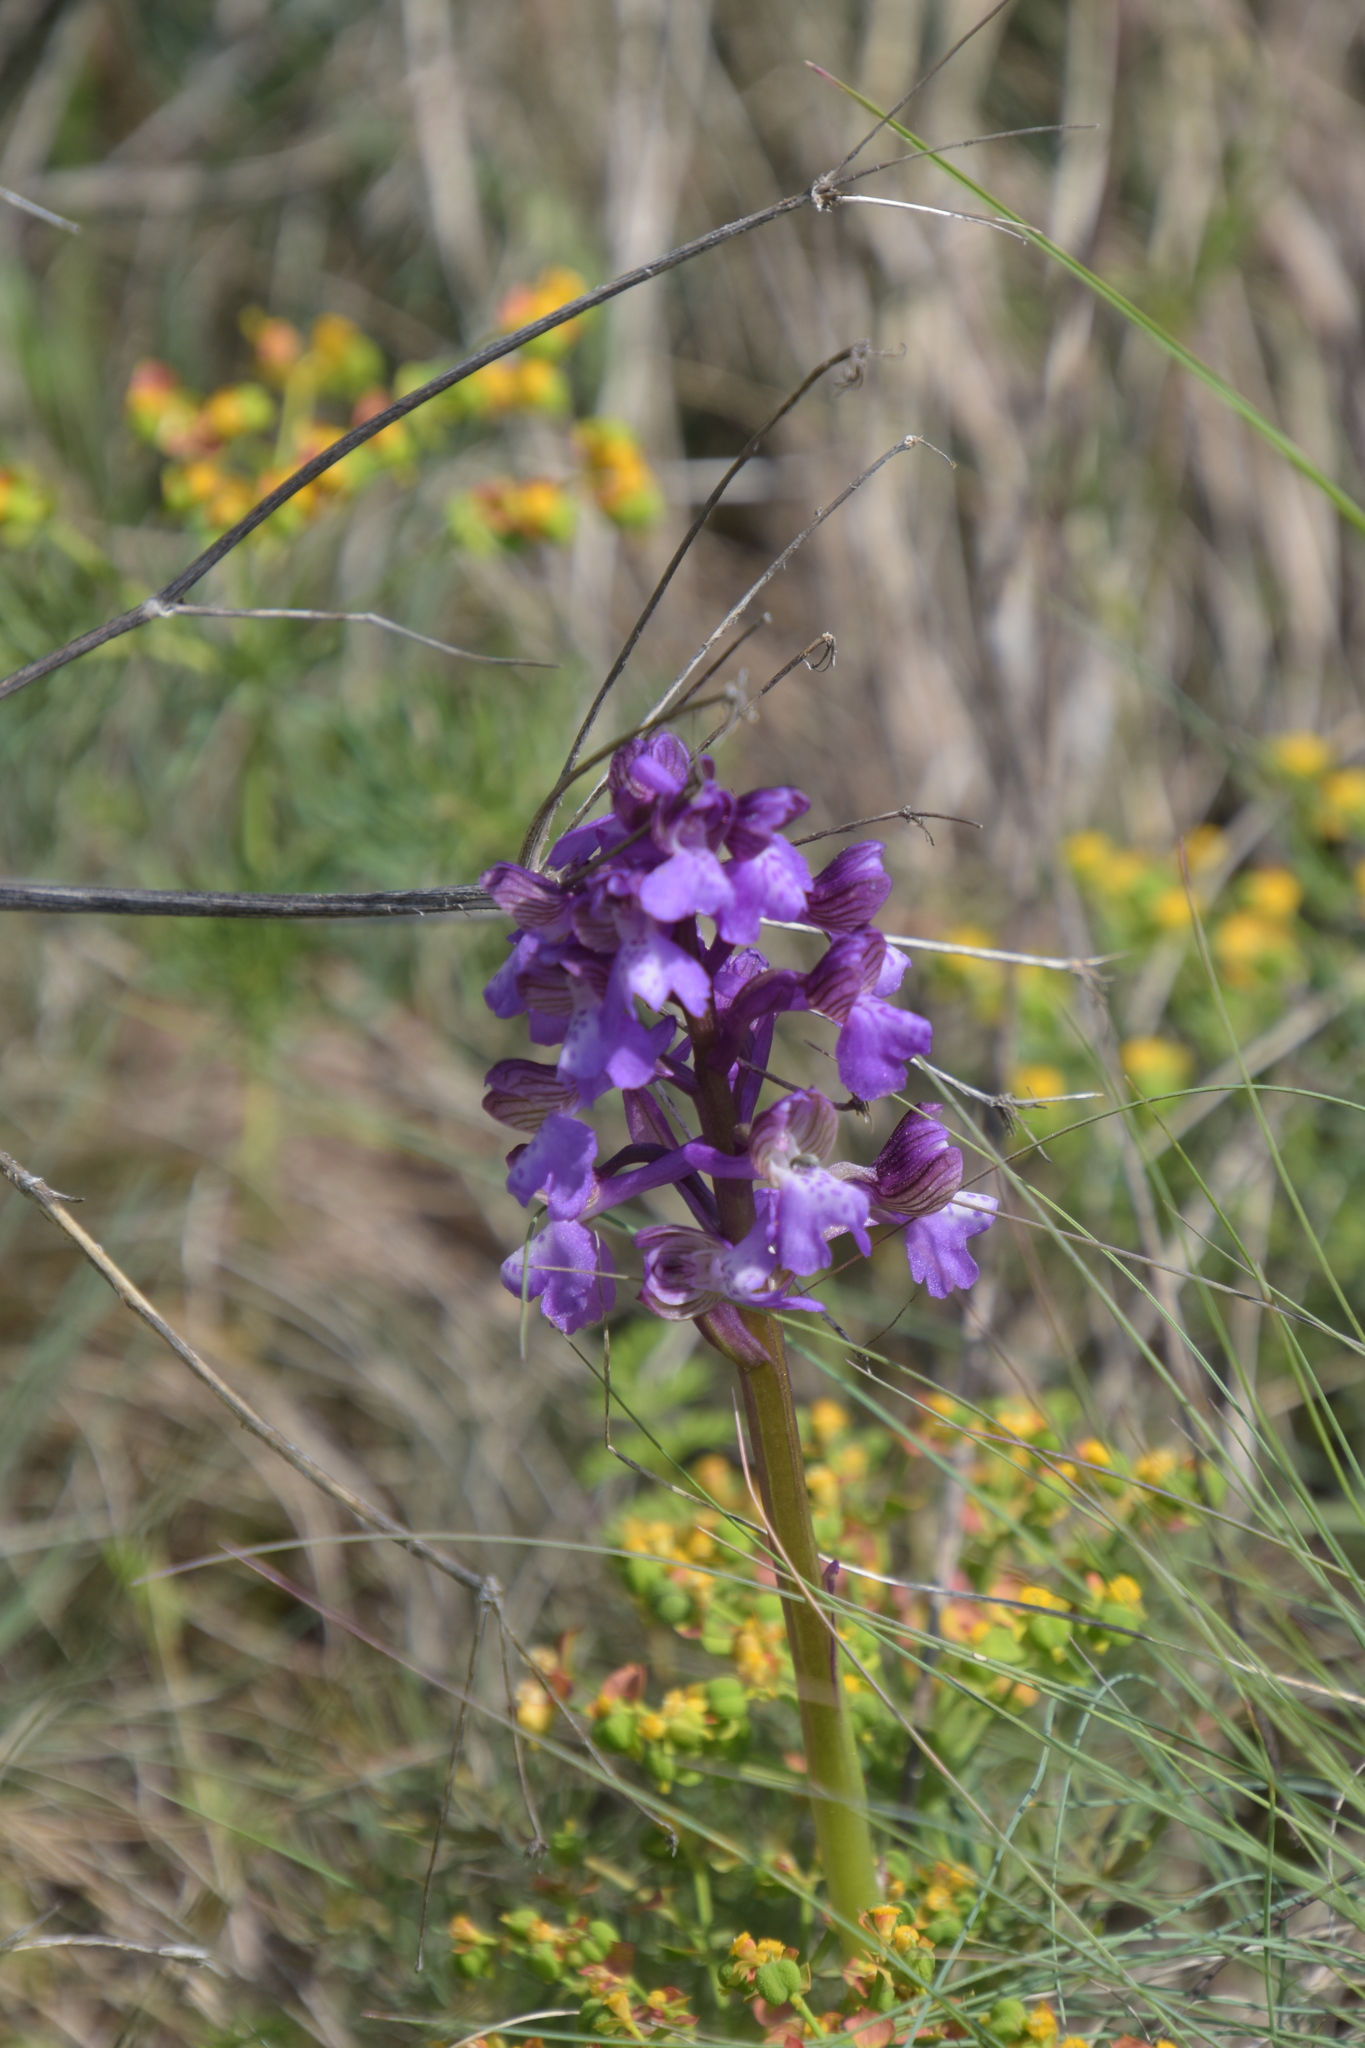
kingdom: Plantae
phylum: Tracheophyta
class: Liliopsida
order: Asparagales
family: Orchidaceae
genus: Anacamptis
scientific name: Anacamptis morio
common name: Green-winged orchid
